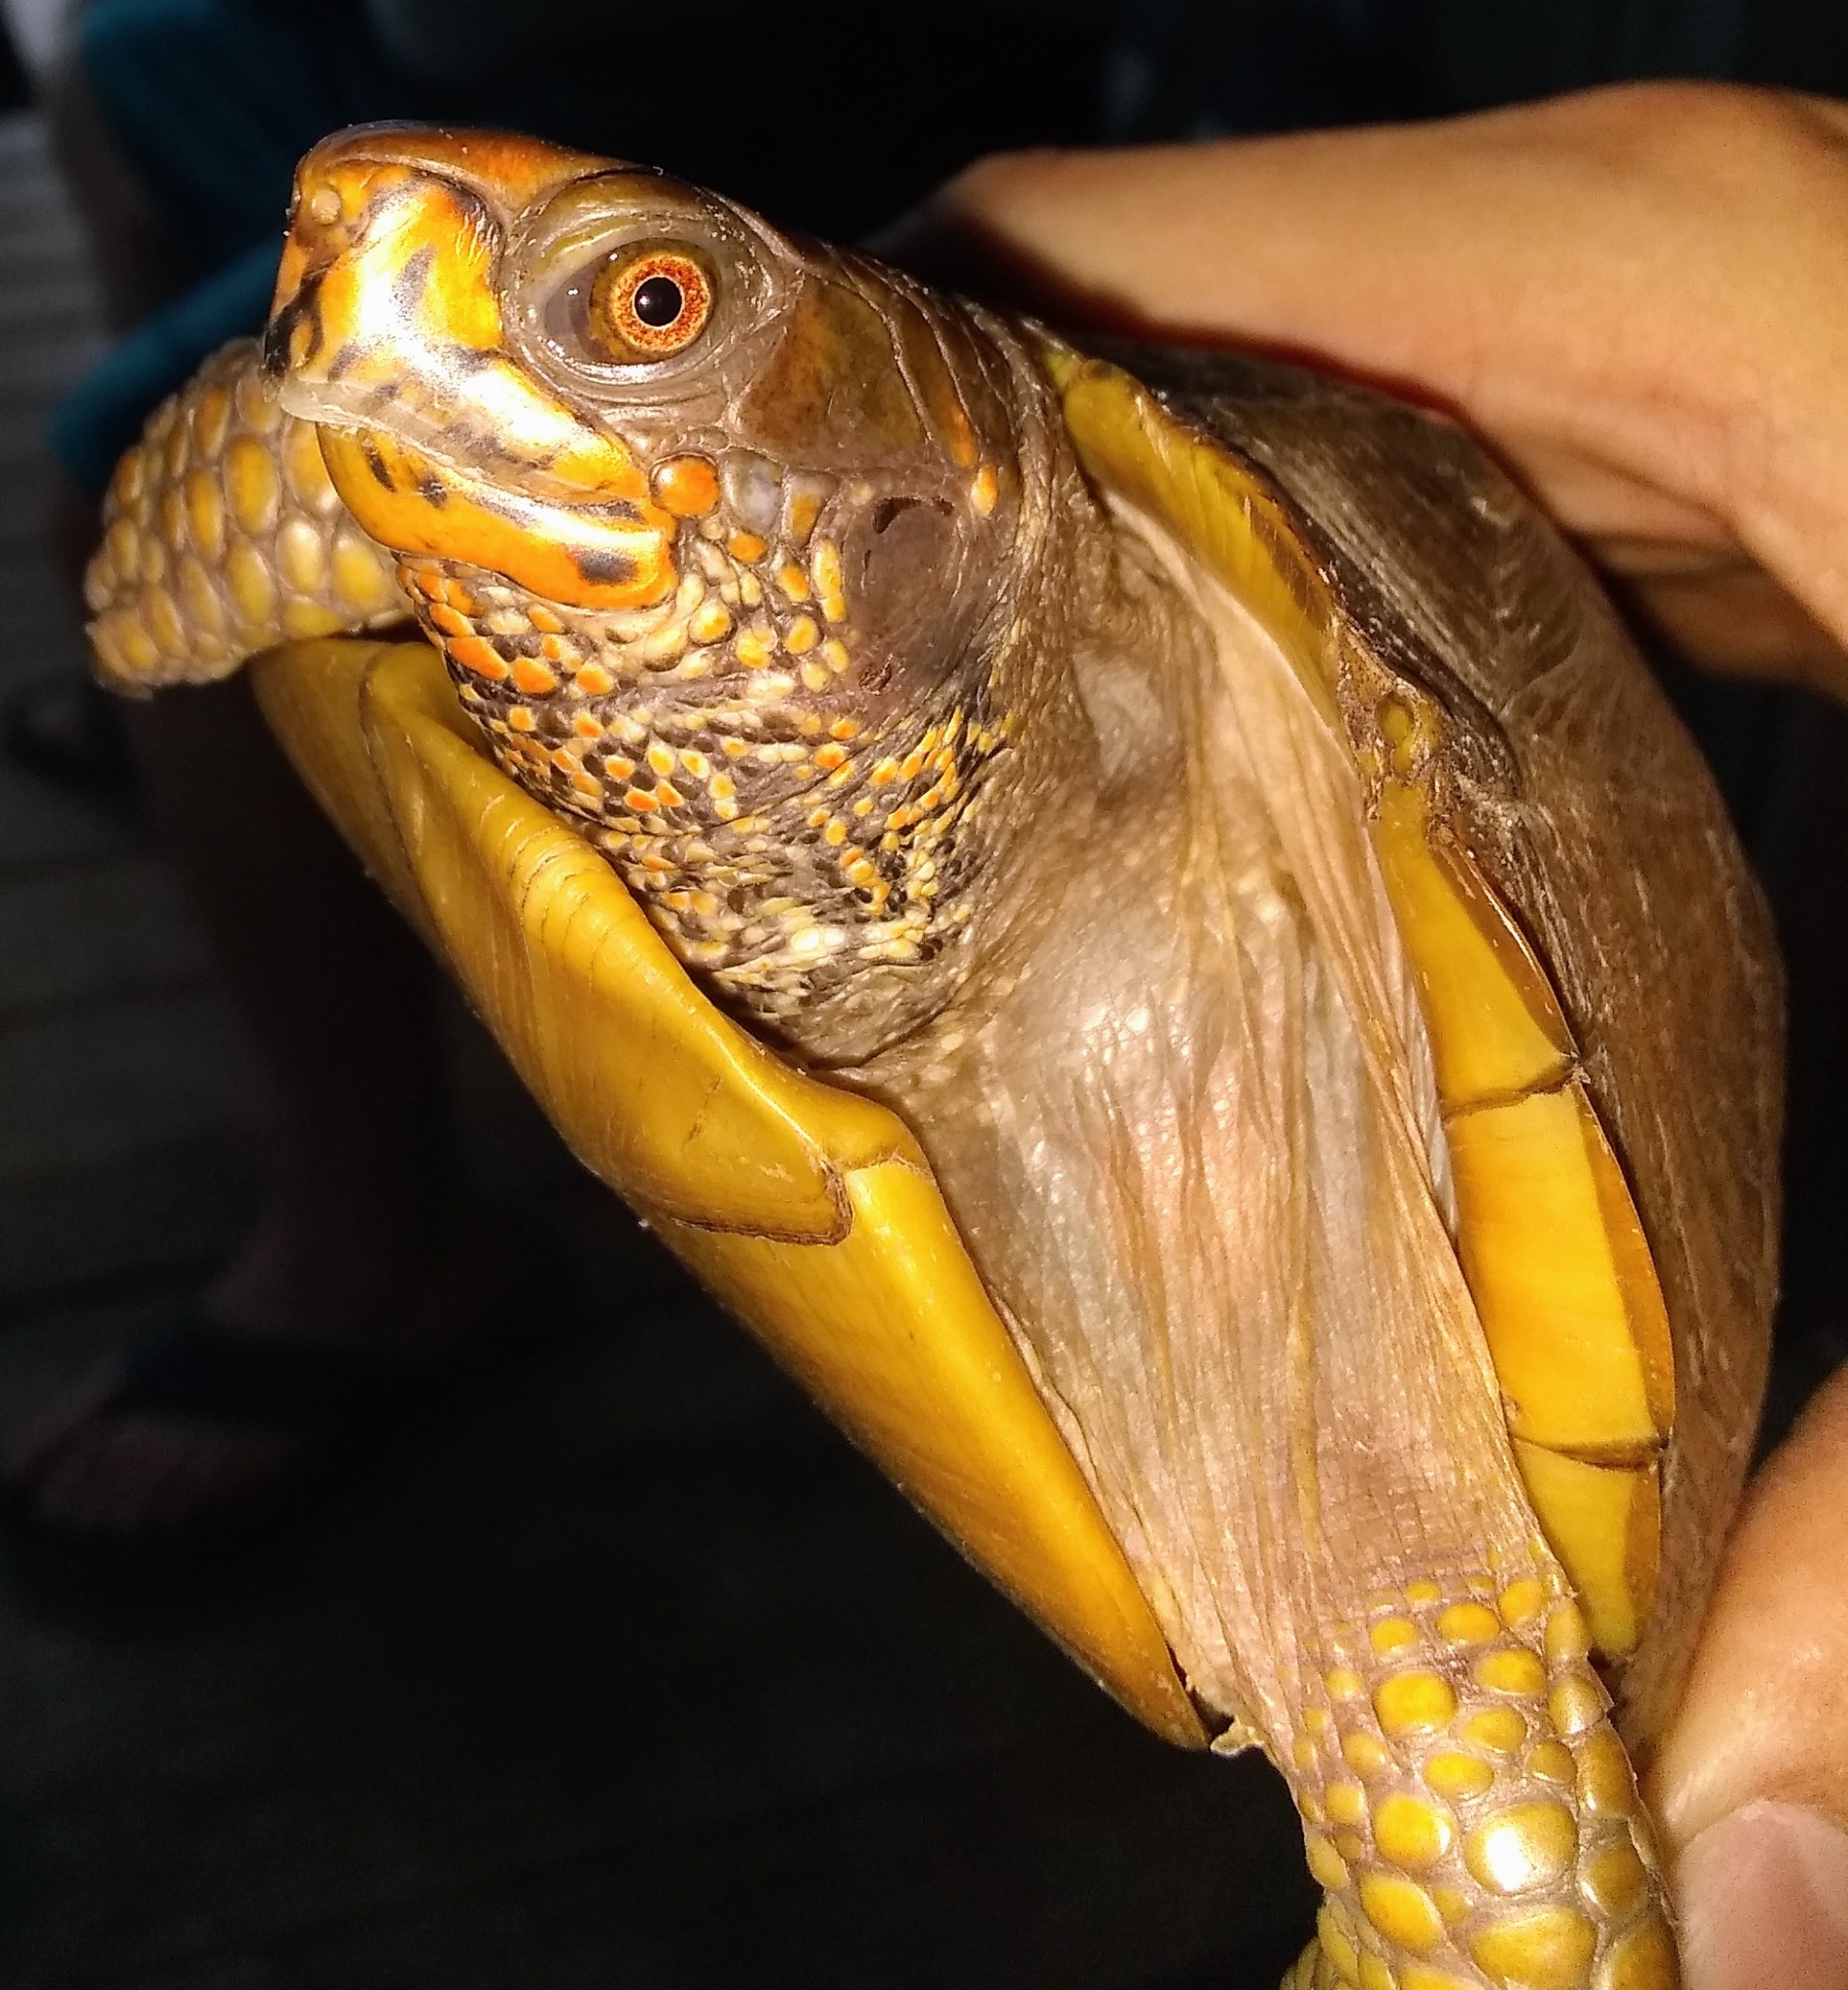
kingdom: Animalia
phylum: Chordata
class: Testudines
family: Emydidae
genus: Terrapene
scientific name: Terrapene carolina
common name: Common box turtle
